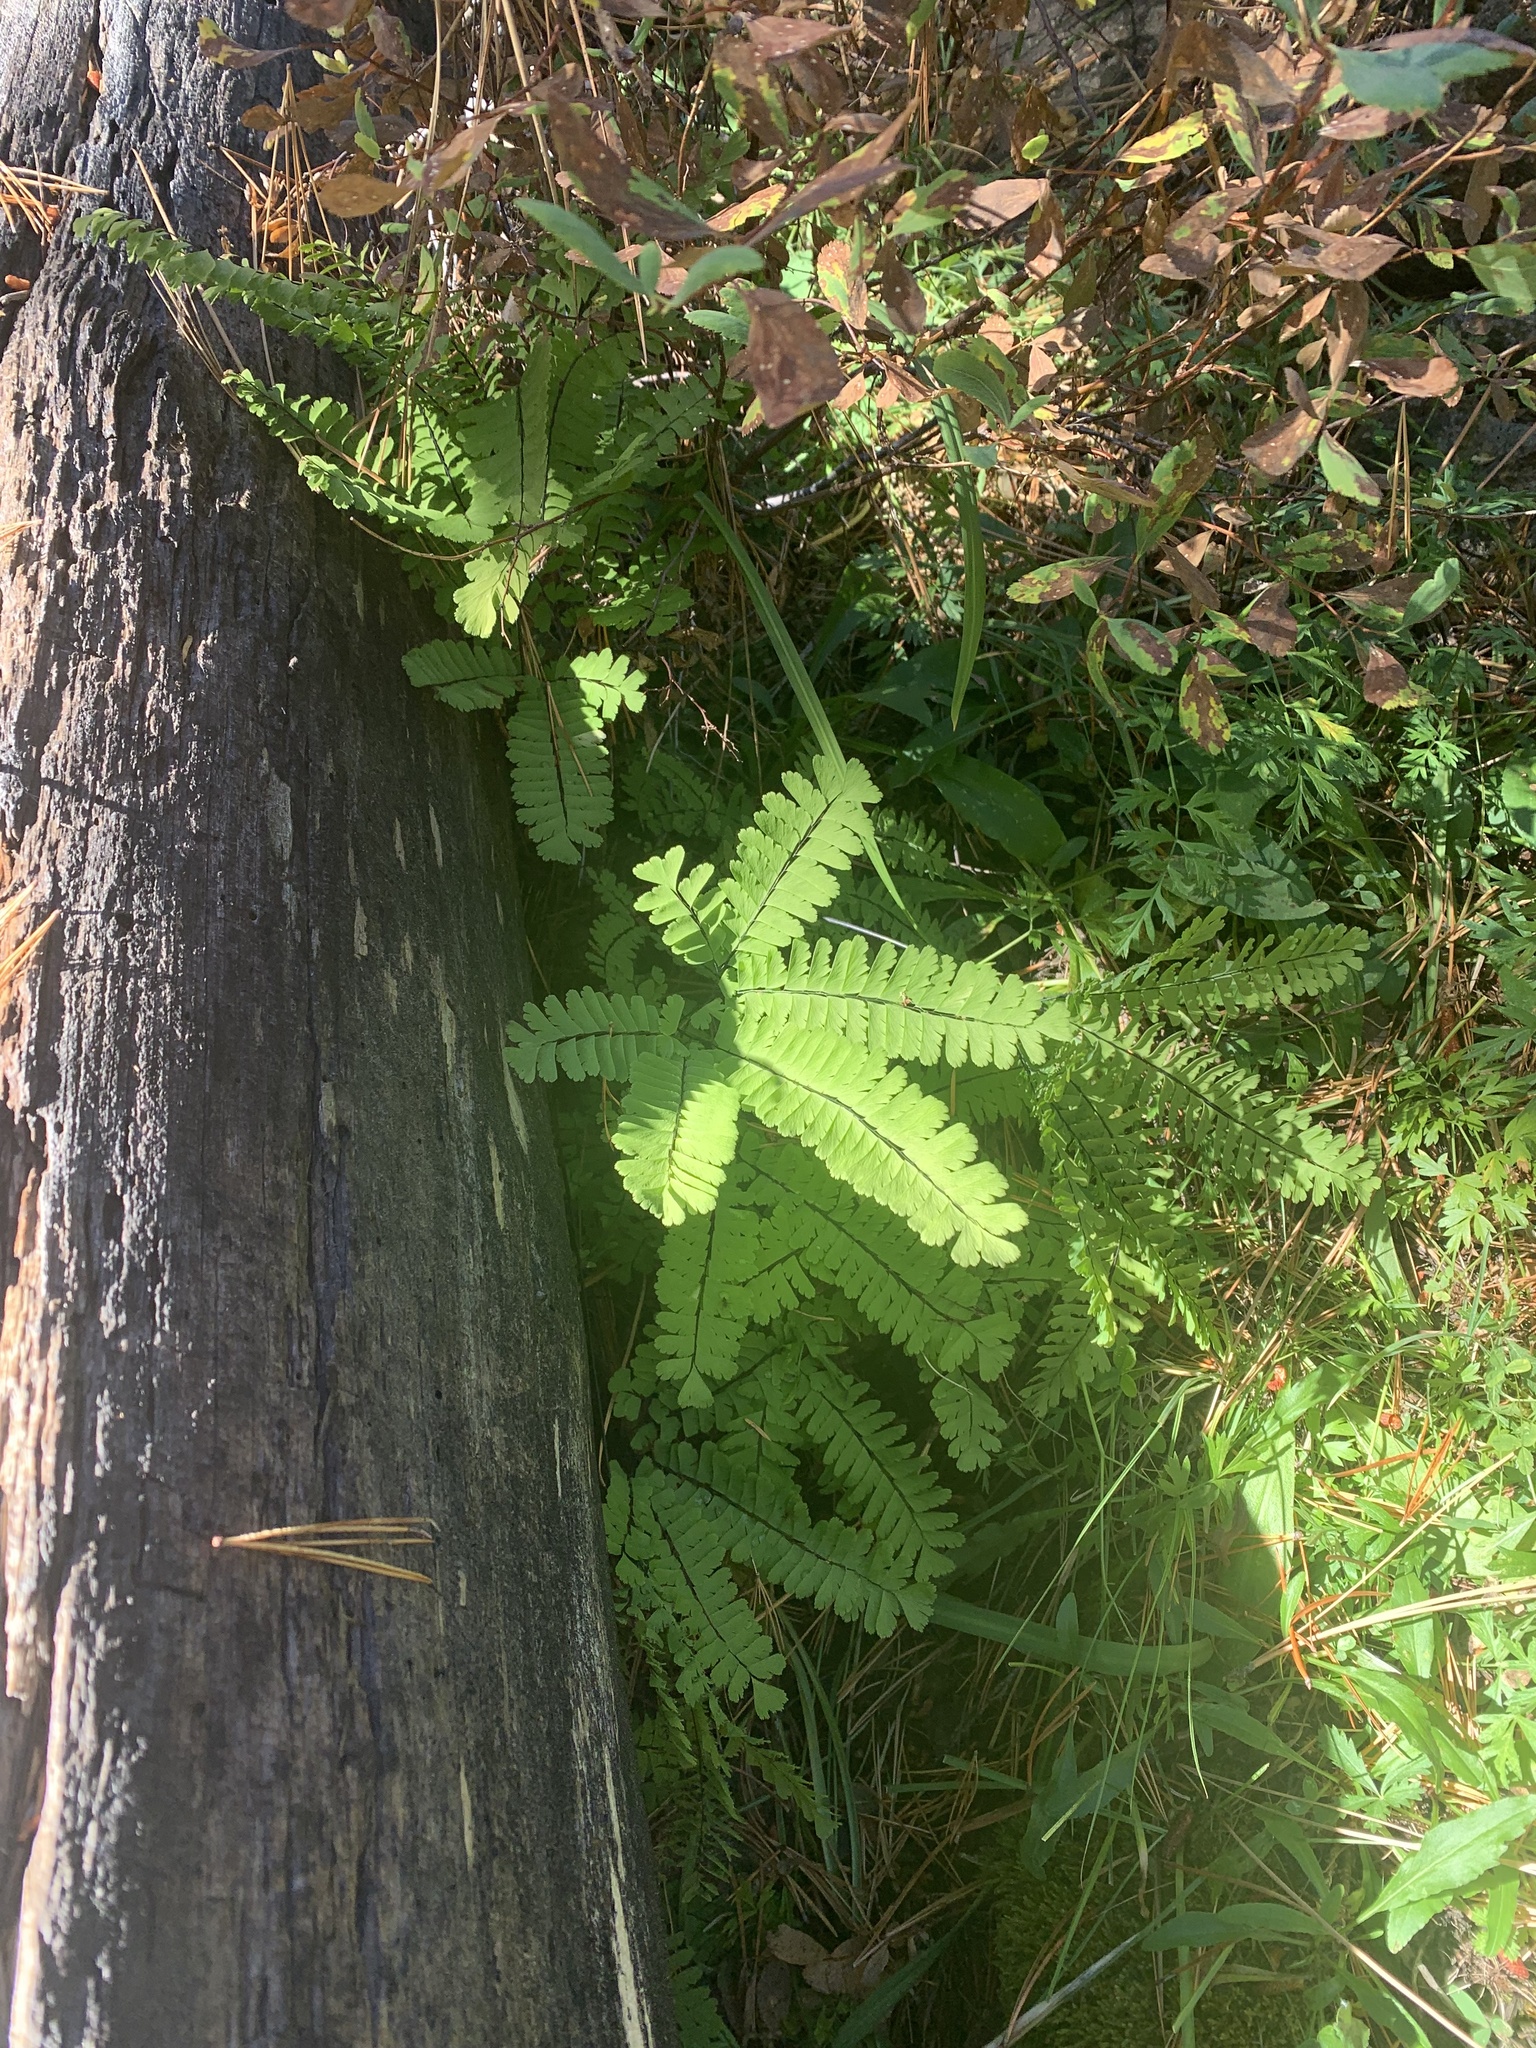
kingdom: Plantae
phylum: Tracheophyta
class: Polypodiopsida
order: Polypodiales
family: Pteridaceae
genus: Adiantum
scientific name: Adiantum aleuticum
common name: Aleutian maidenhair fern
